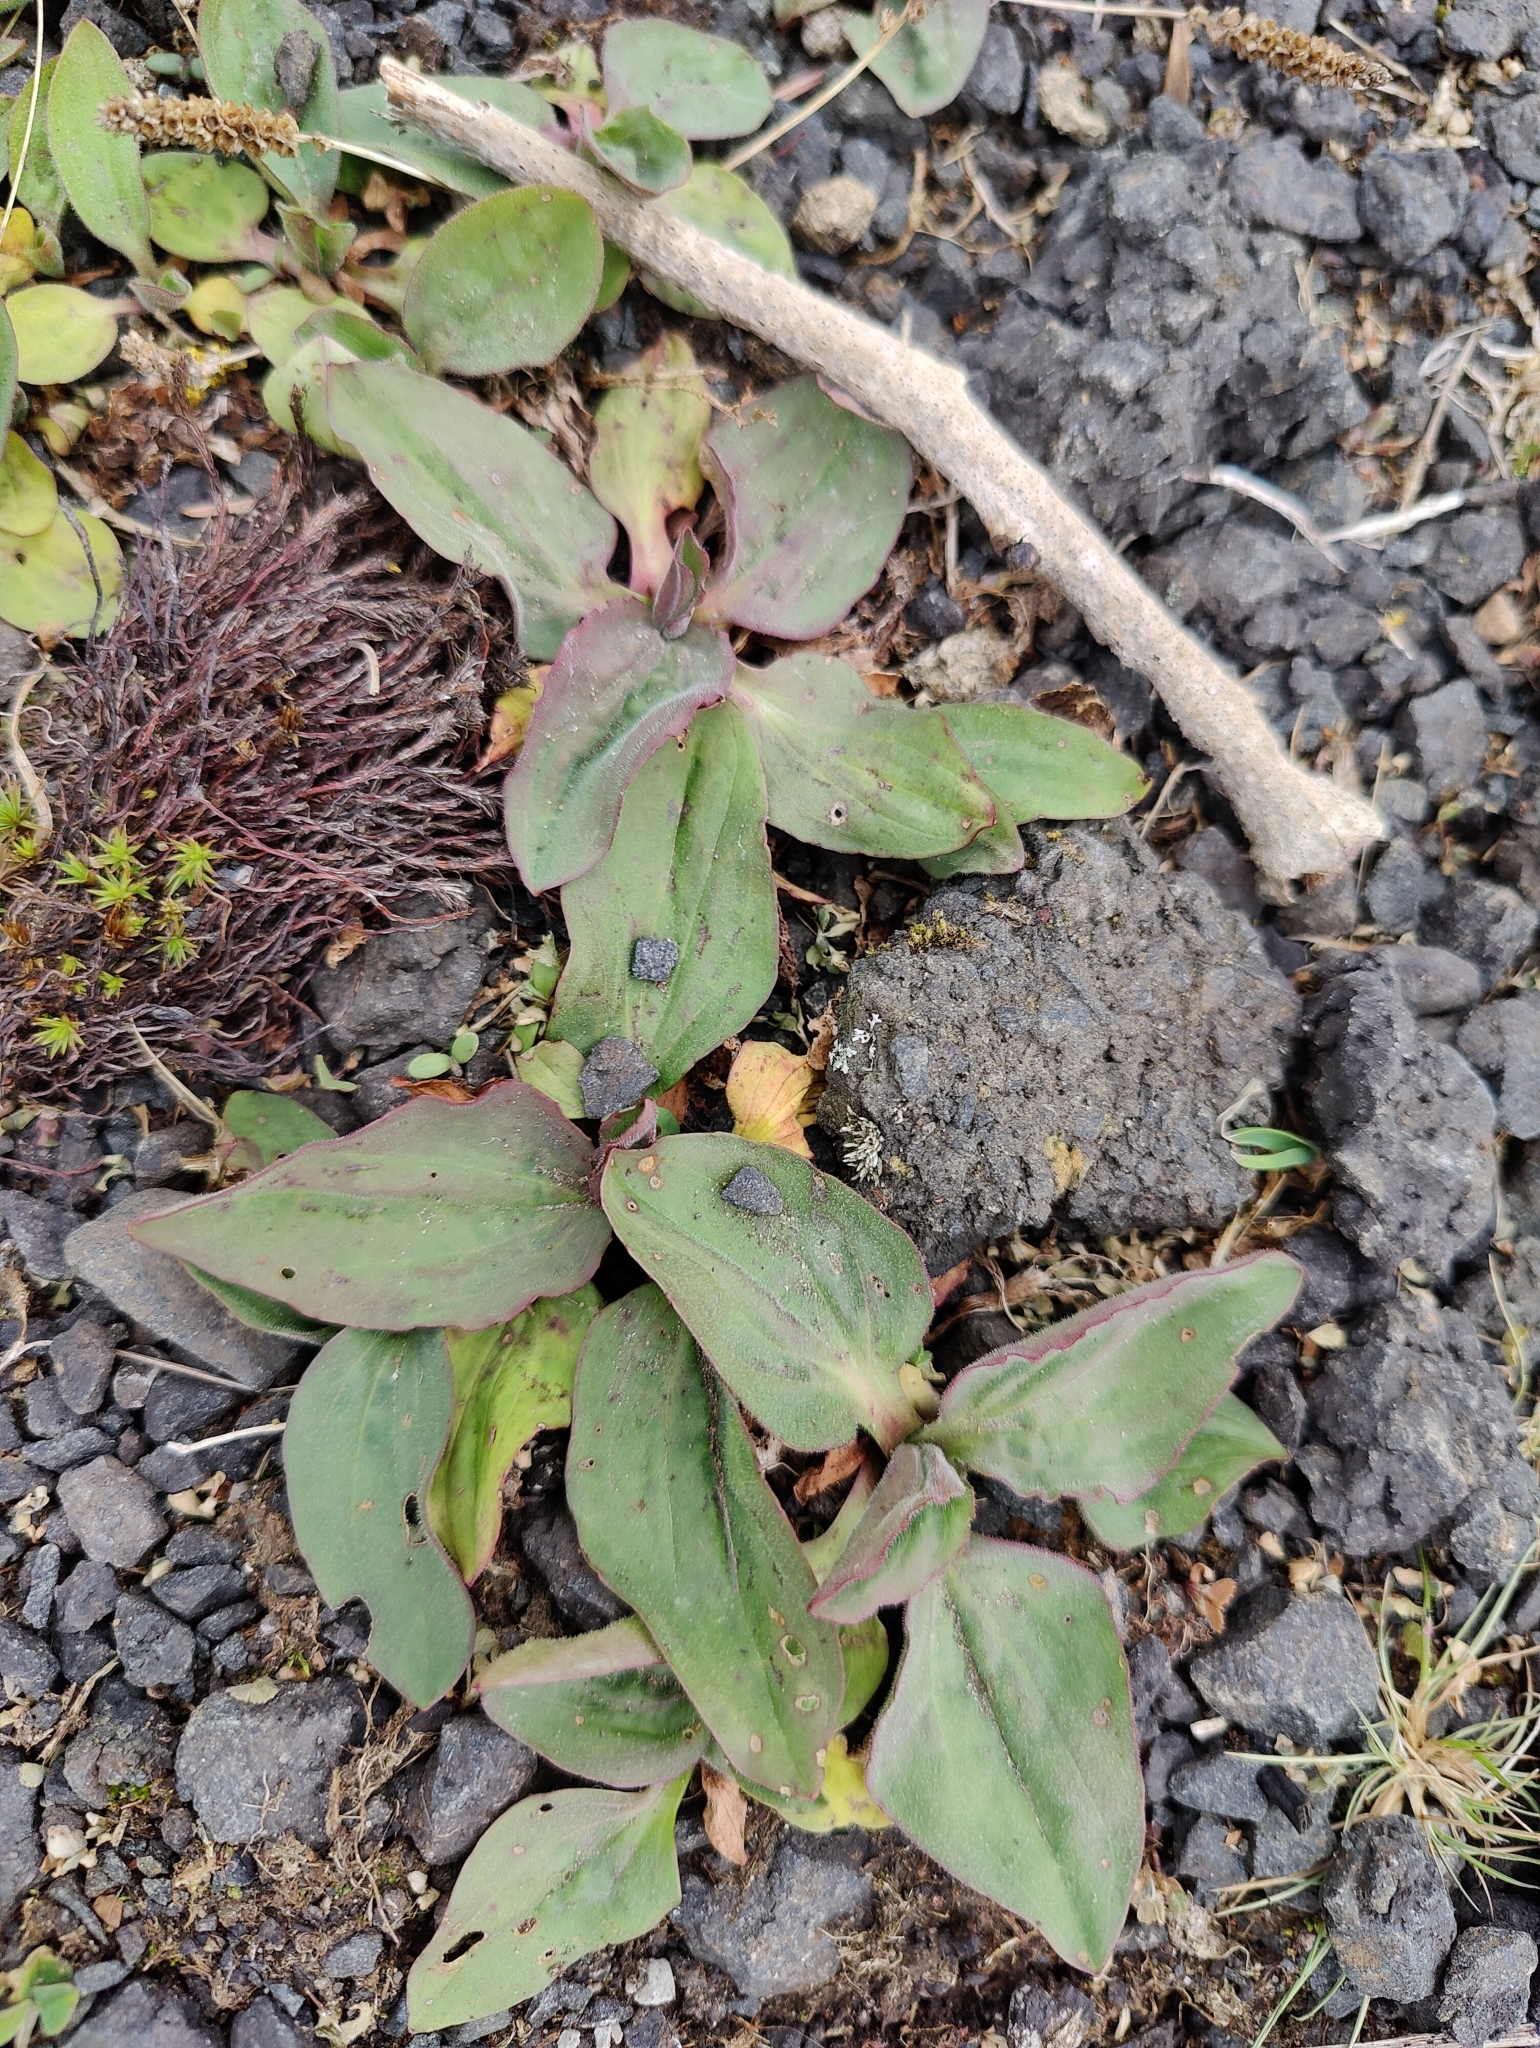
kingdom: Plantae
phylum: Tracheophyta
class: Magnoliopsida
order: Lamiales
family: Plantaginaceae
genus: Plantago
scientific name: Plantago major
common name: Common plantain
